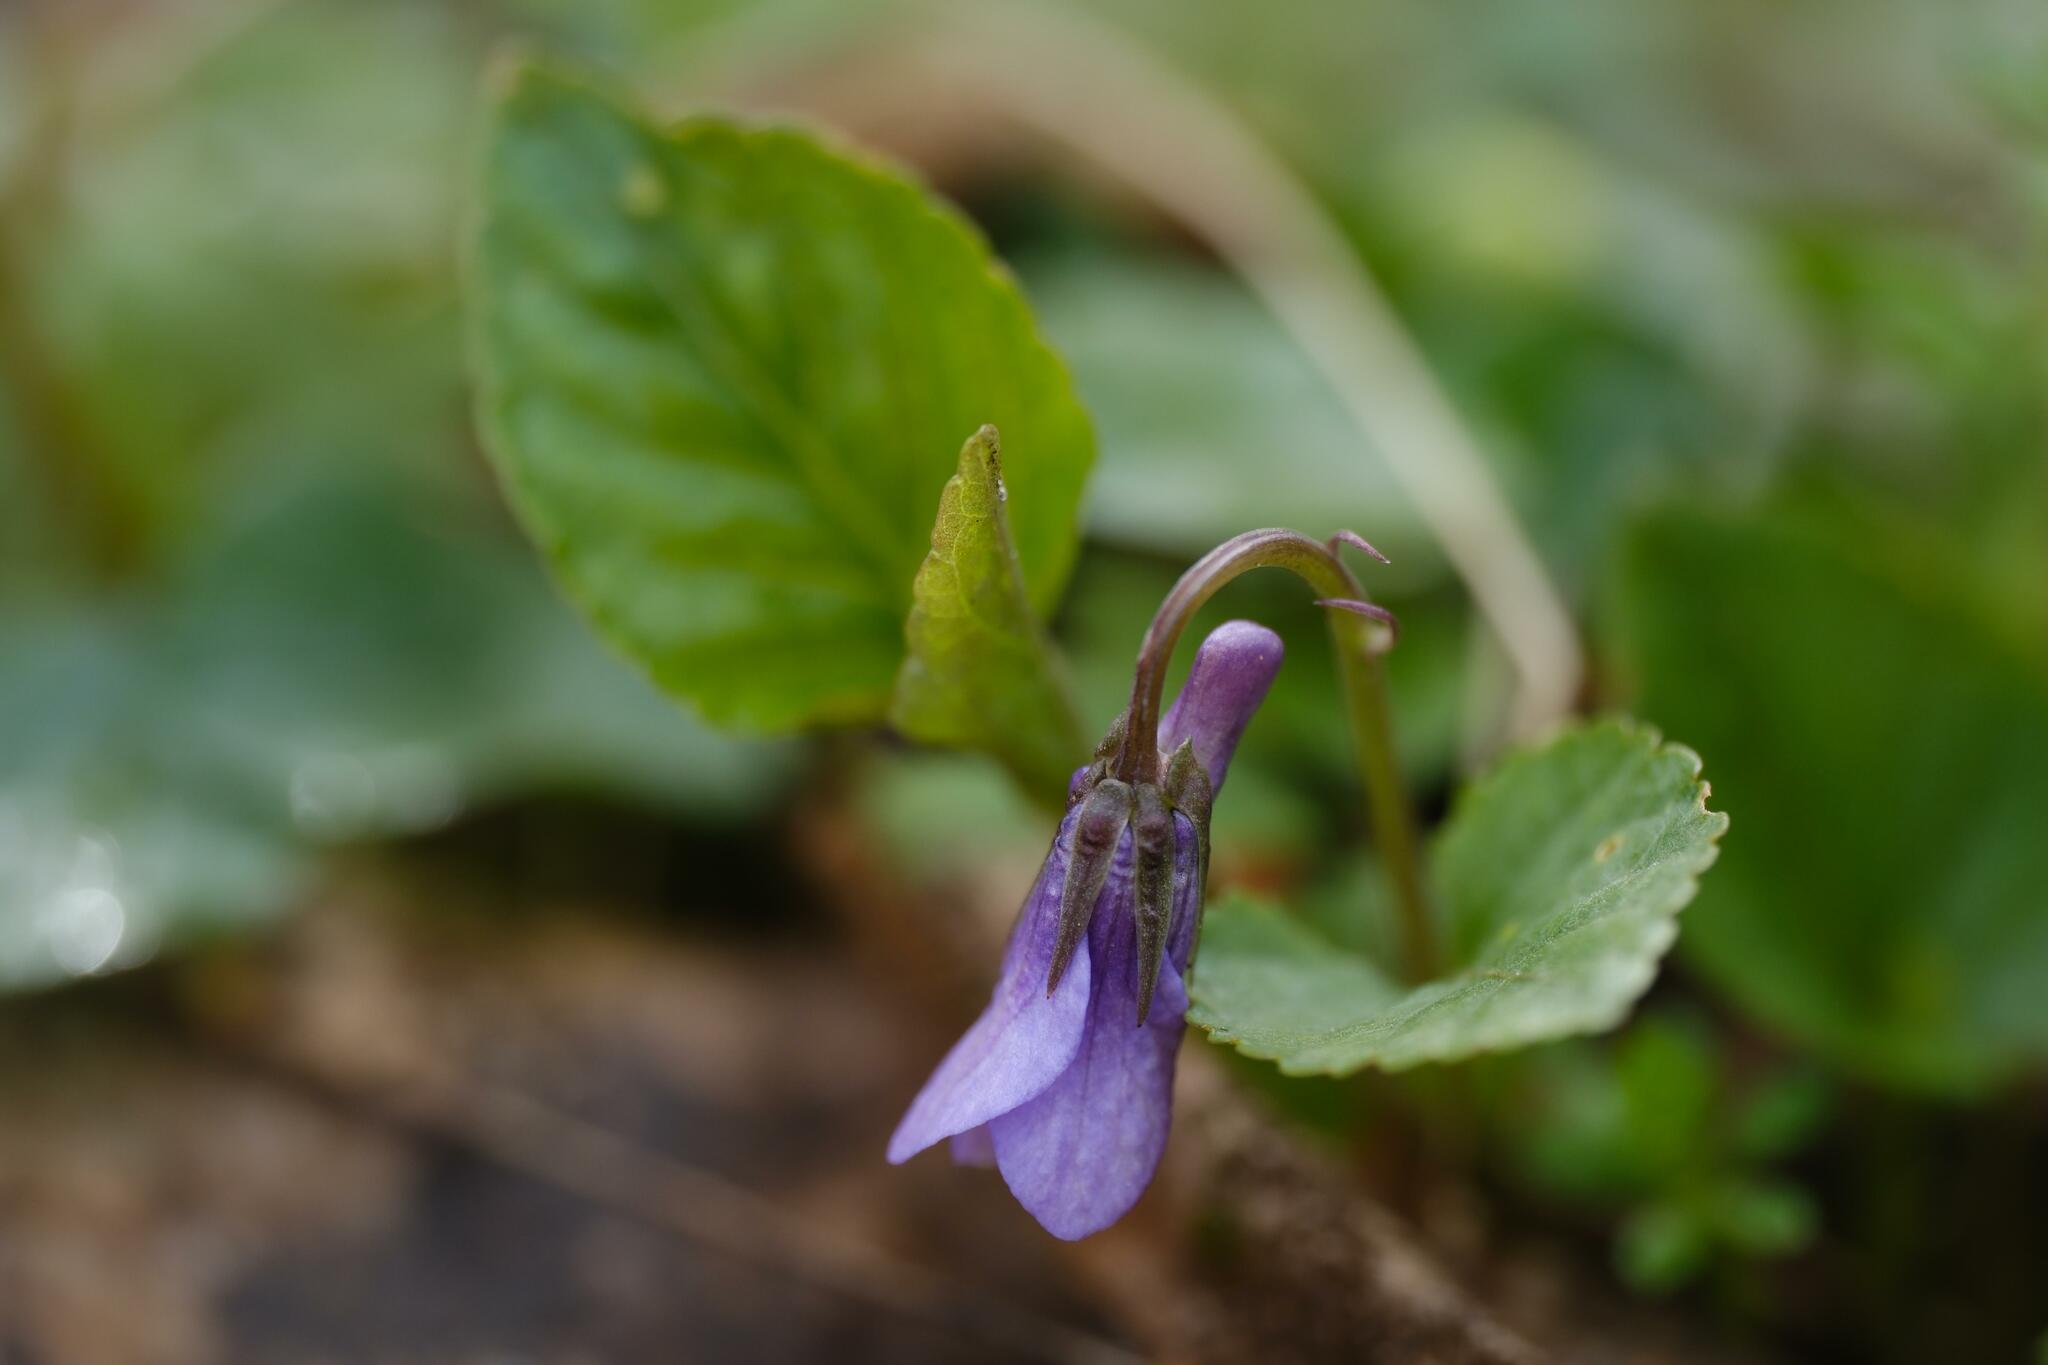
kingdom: Plantae
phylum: Tracheophyta
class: Magnoliopsida
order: Malpighiales
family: Violaceae
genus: Viola
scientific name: Viola reichenbachiana
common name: Early dog-violet
